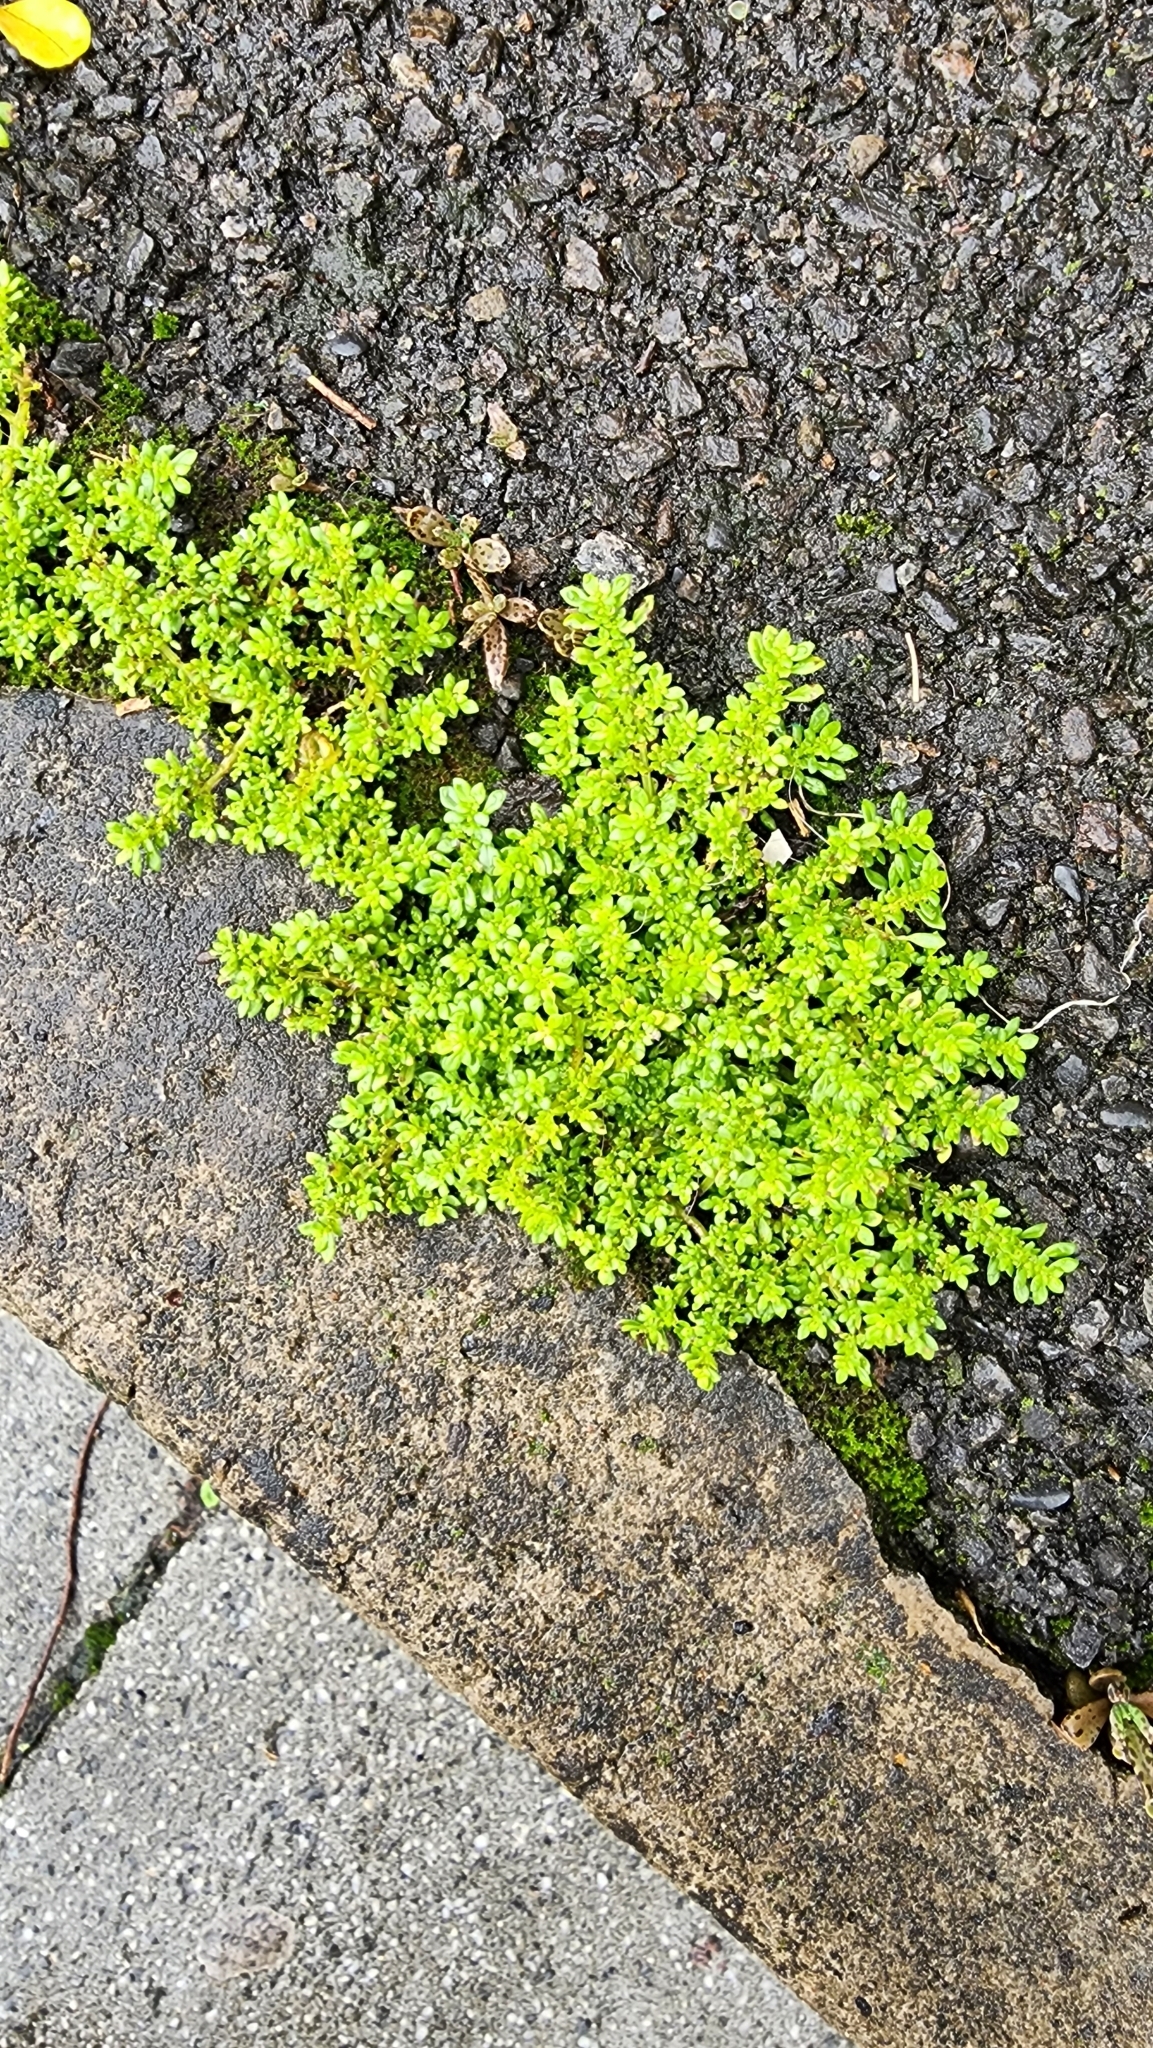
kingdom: Plantae
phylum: Tracheophyta
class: Magnoliopsida
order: Rosales
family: Urticaceae
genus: Pilea
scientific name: Pilea microphylla
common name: Artillery-plant
